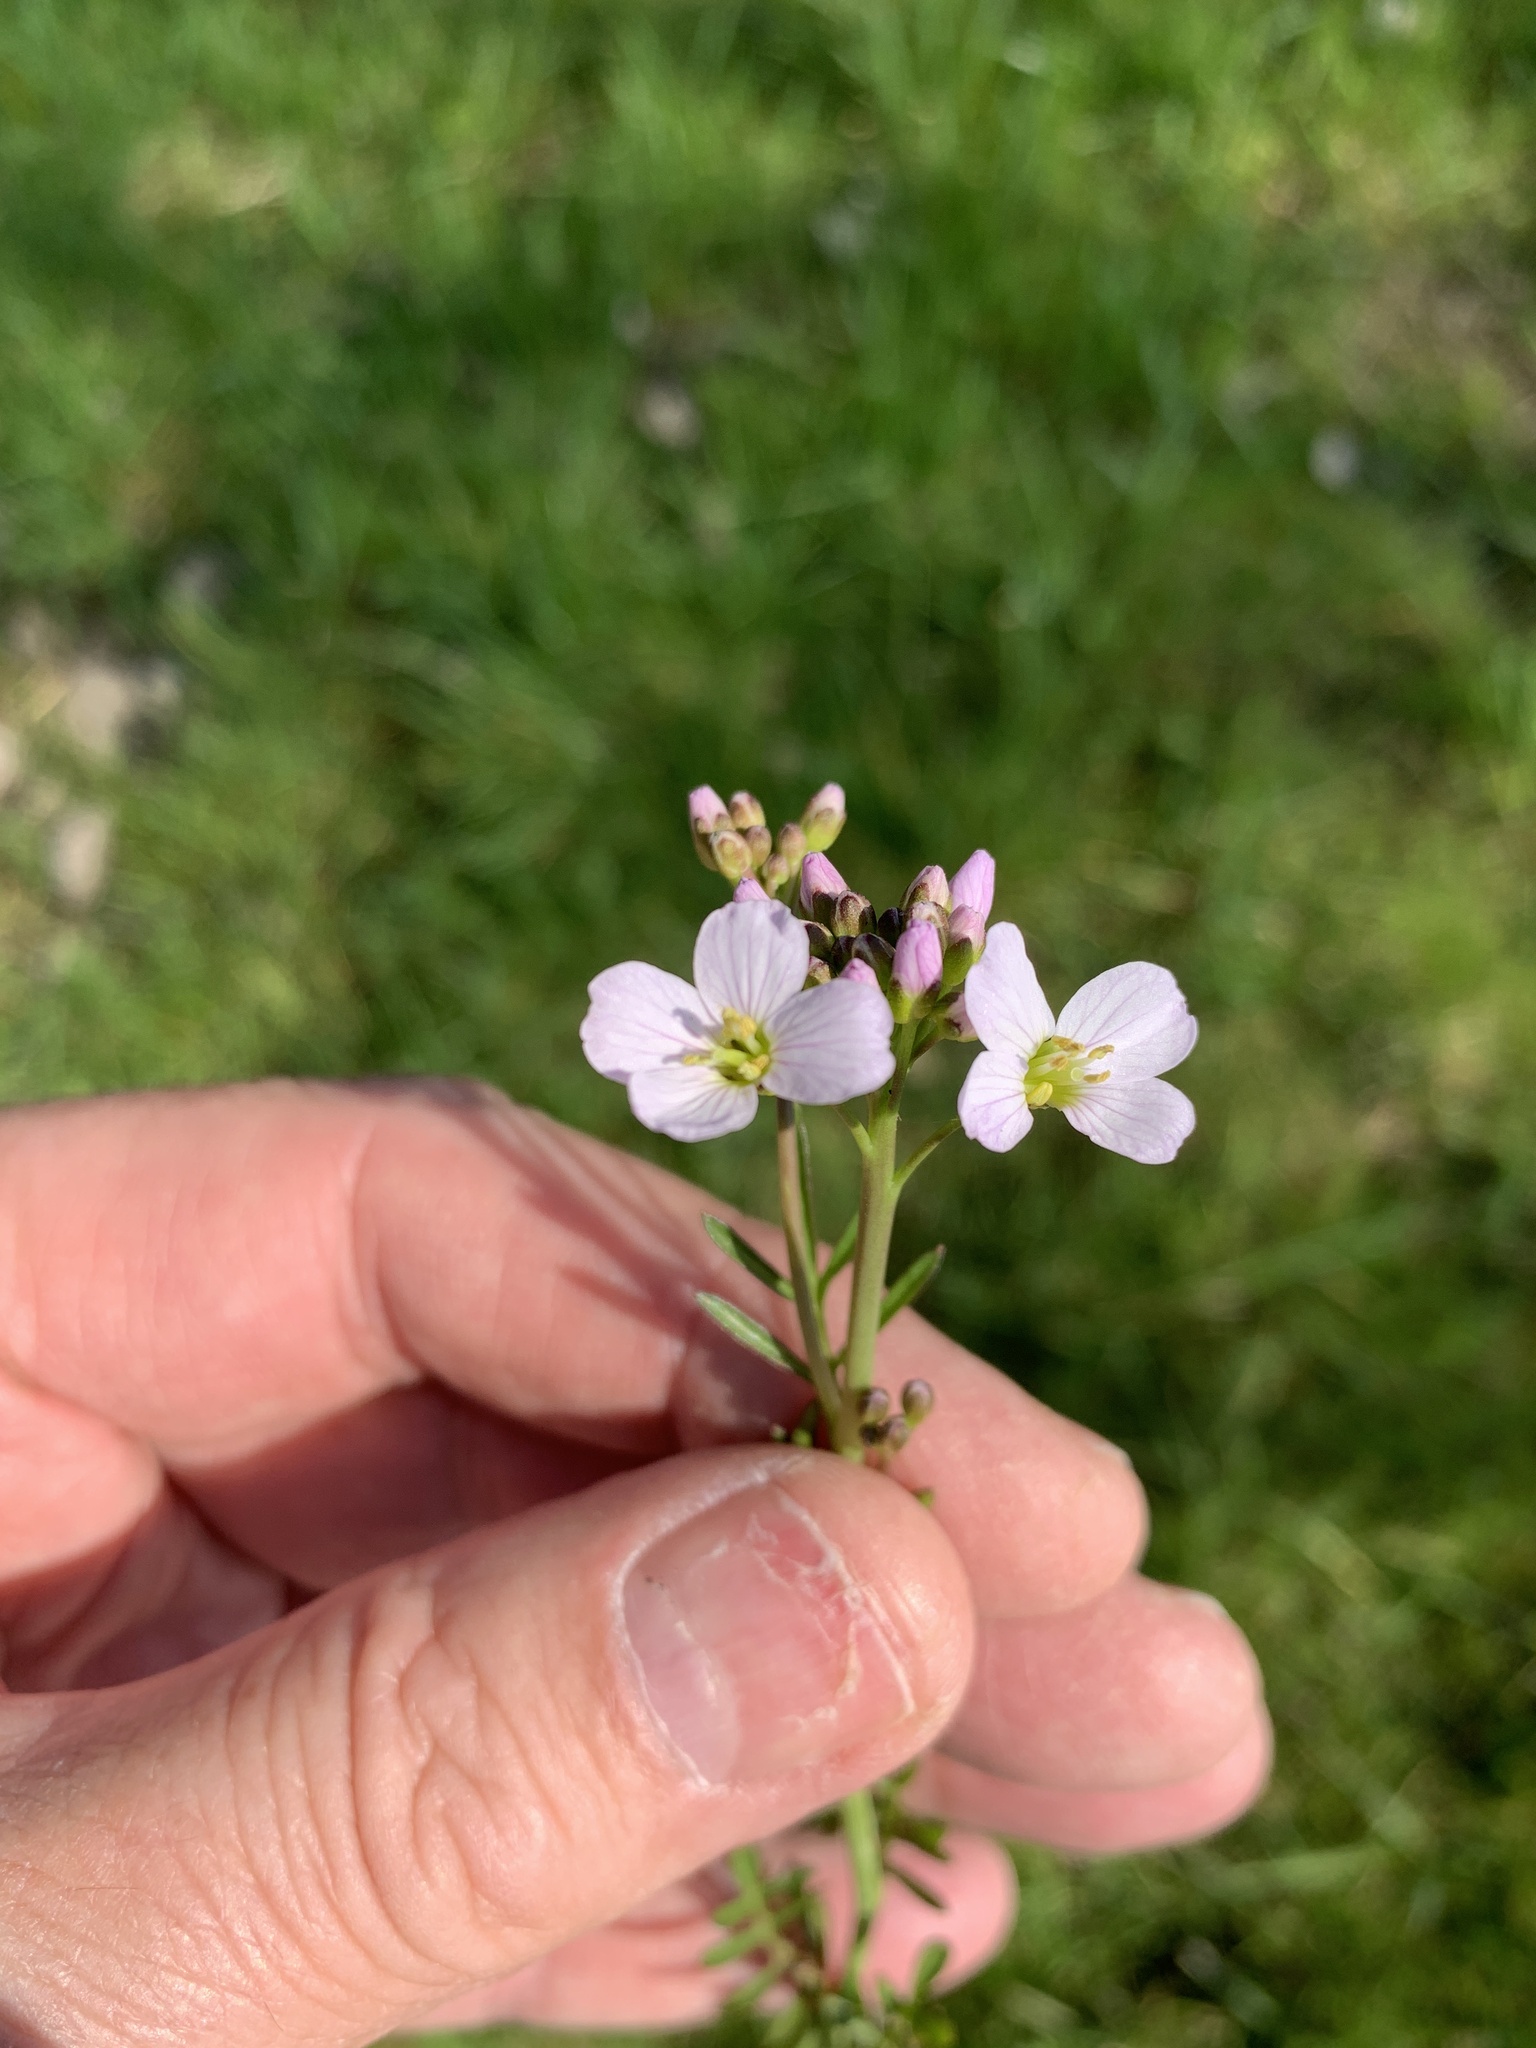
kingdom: Plantae
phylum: Tracheophyta
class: Magnoliopsida
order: Brassicales
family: Brassicaceae
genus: Cardamine
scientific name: Cardamine pratensis
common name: Cuckoo flower
